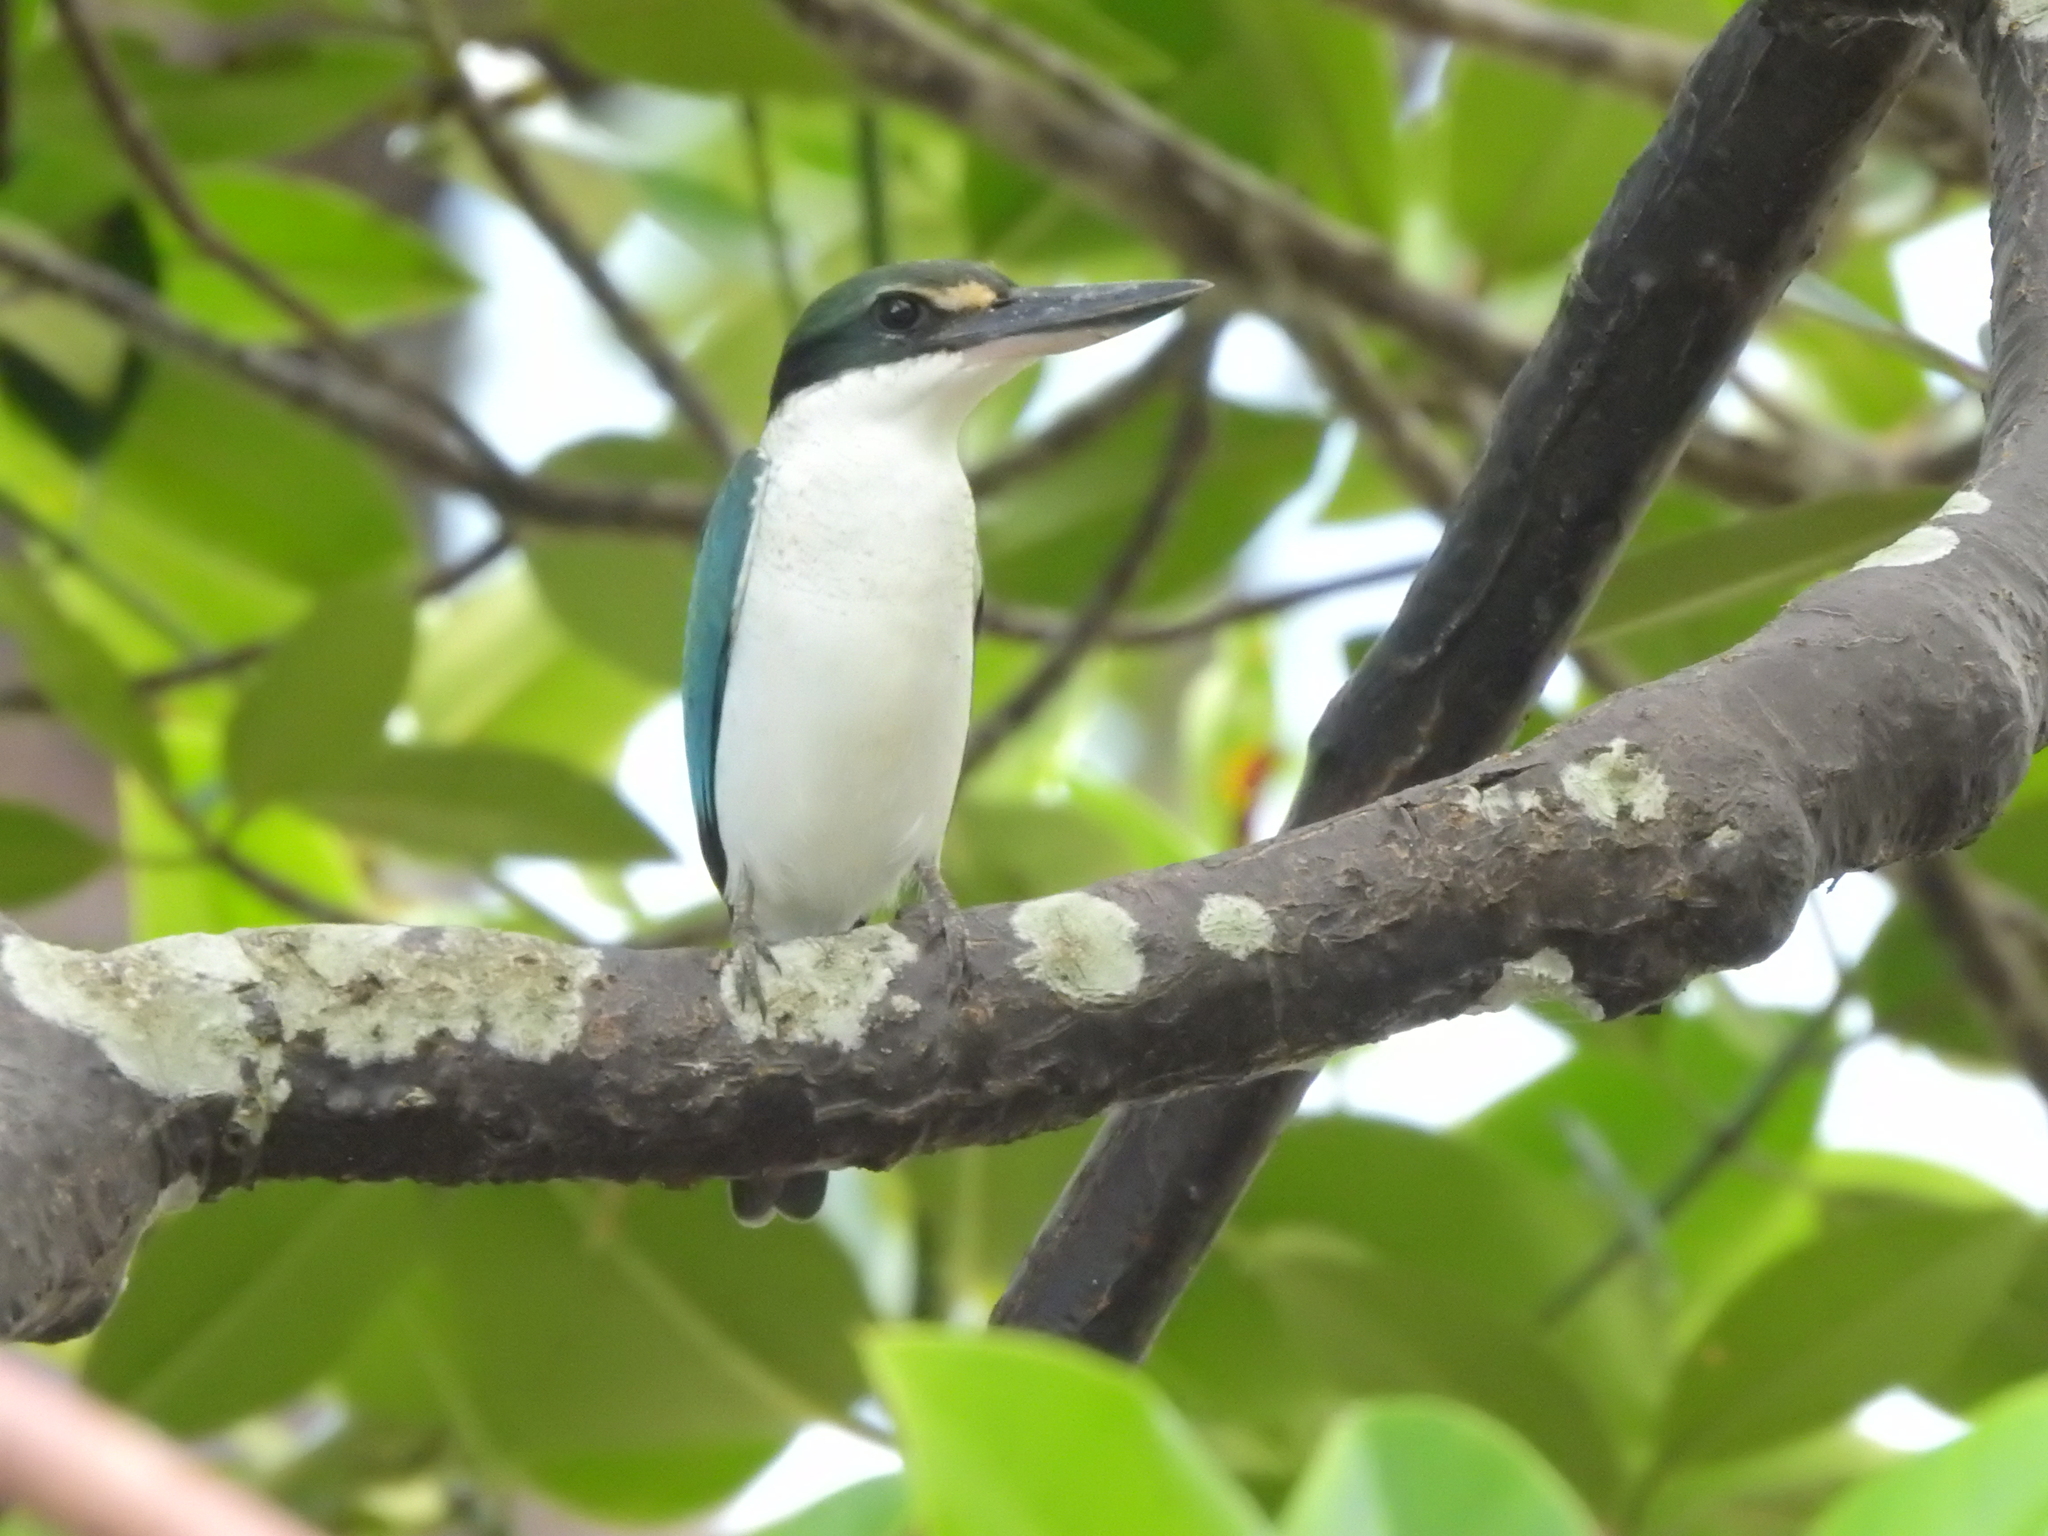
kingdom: Animalia
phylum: Chordata
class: Aves
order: Coraciiformes
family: Alcedinidae
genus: Todiramphus
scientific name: Todiramphus chloris
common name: Collared kingfisher
